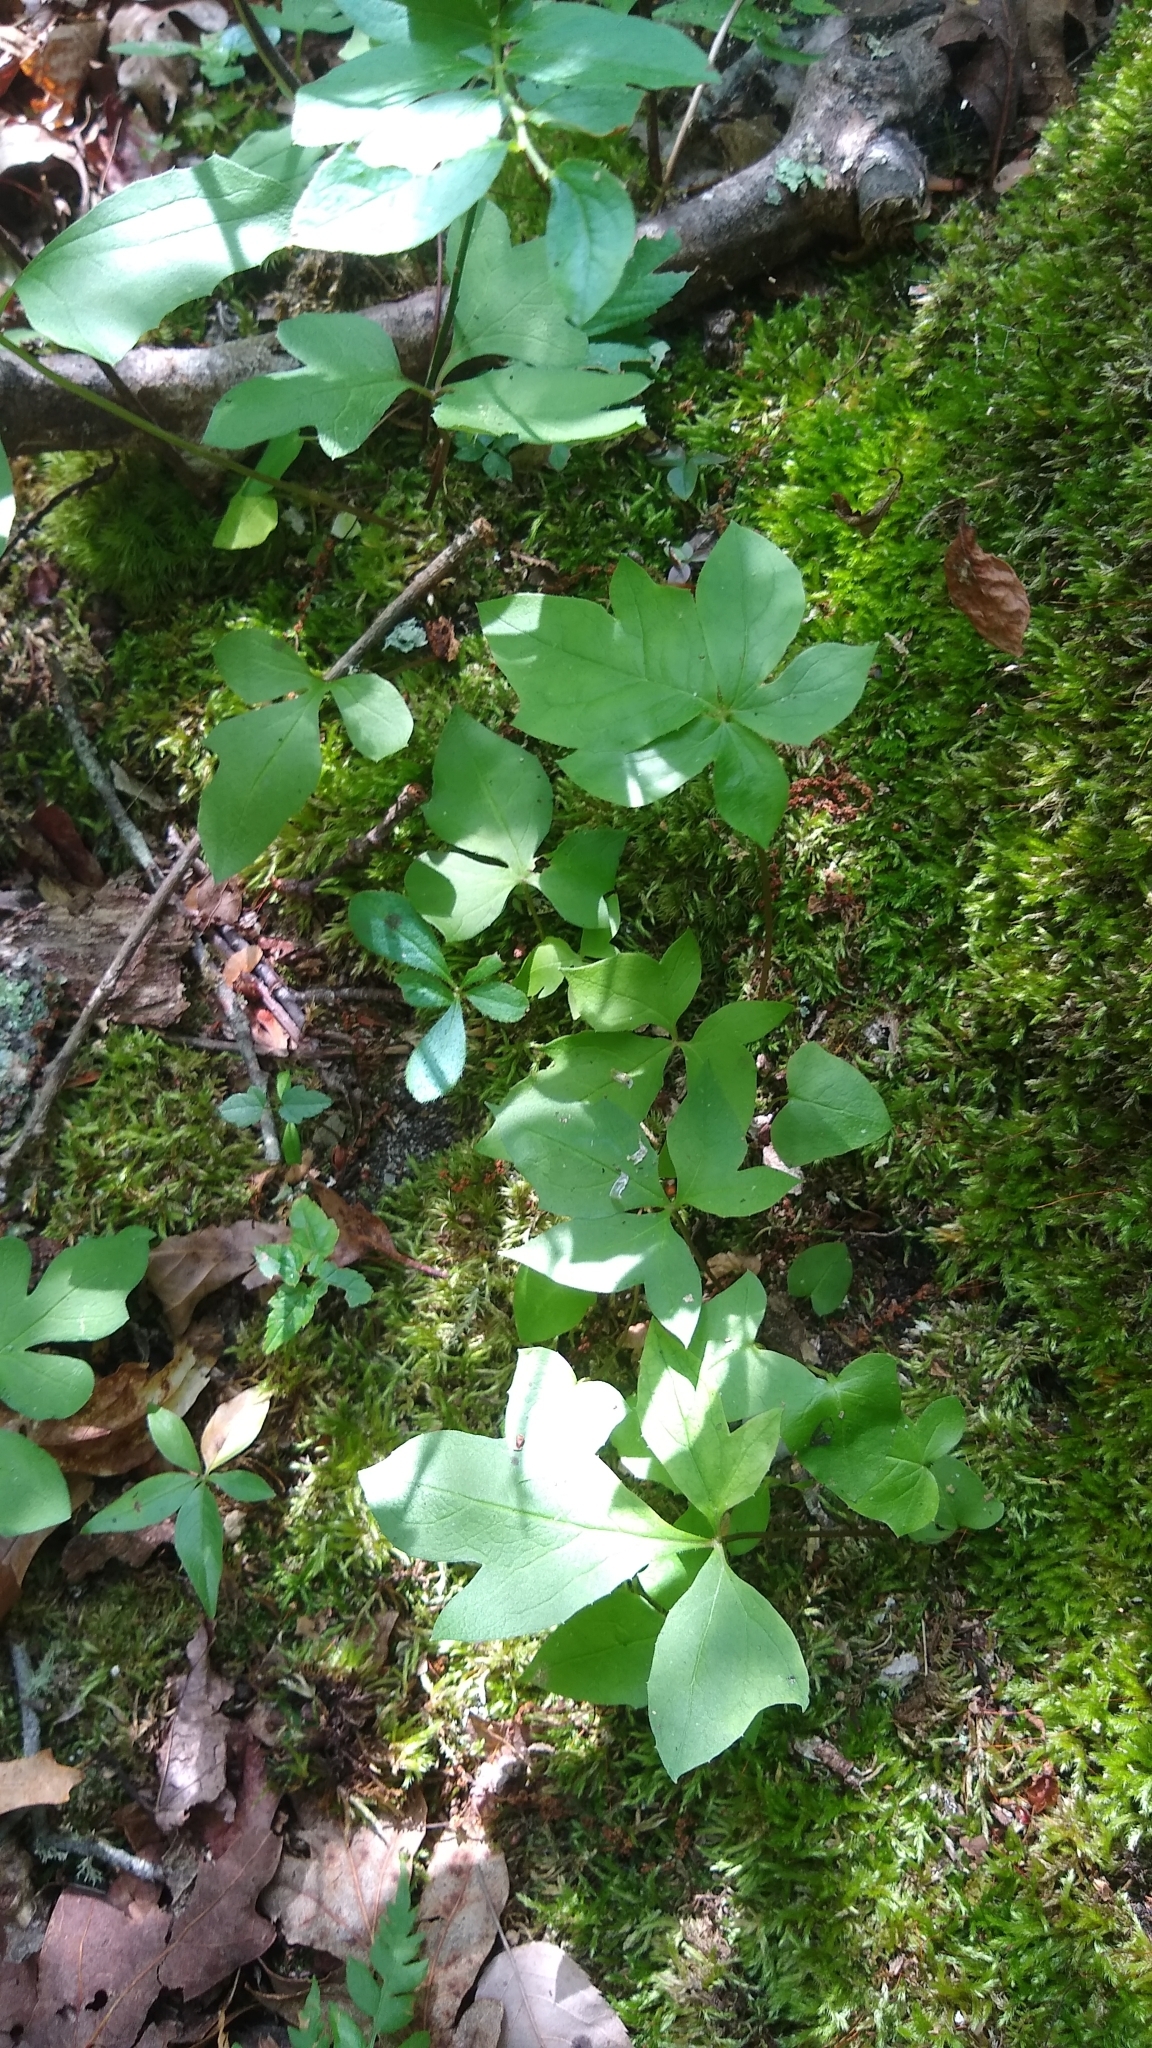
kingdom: Plantae
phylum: Tracheophyta
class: Magnoliopsida
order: Asterales
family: Asteraceae
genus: Nabalus
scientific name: Nabalus trifoliolatus
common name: Gall-of-the-earth
